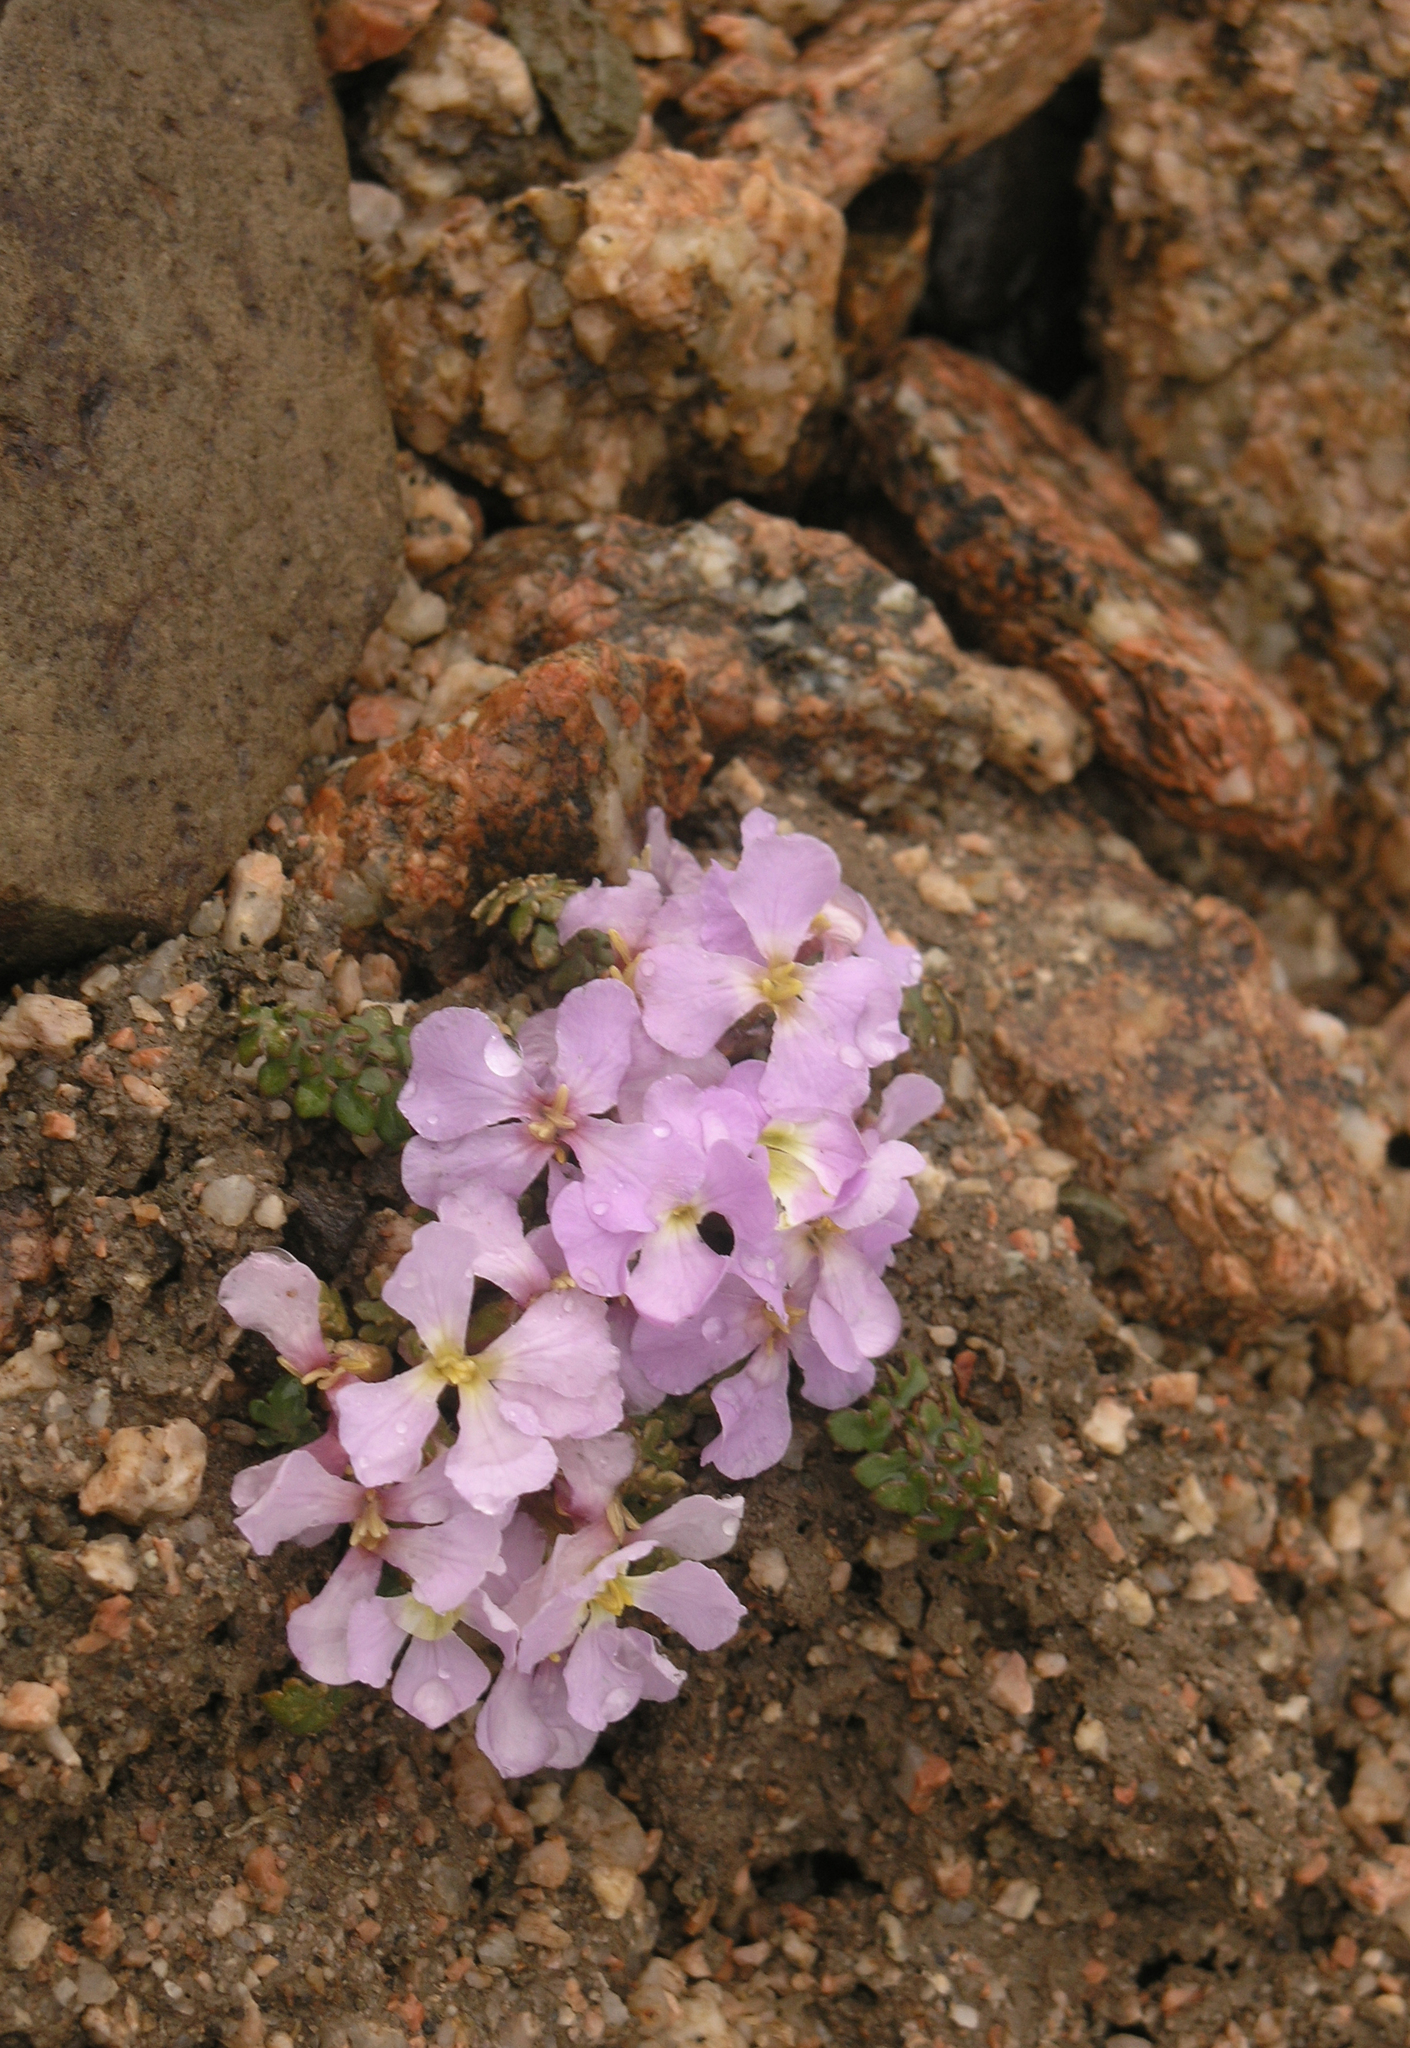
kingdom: Plantae
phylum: Tracheophyta
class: Magnoliopsida
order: Brassicales
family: Brassicaceae
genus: Chorispora
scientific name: Chorispora bungeana
